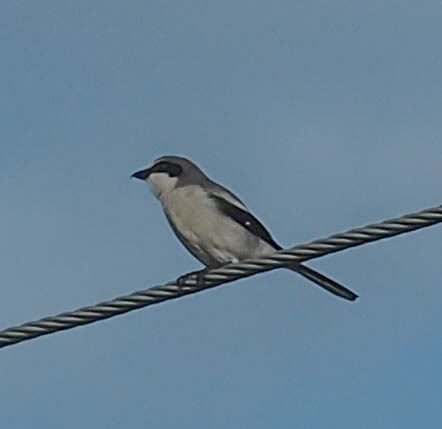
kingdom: Animalia
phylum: Chordata
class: Aves
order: Passeriformes
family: Laniidae
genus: Lanius
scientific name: Lanius ludovicianus
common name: Loggerhead shrike
